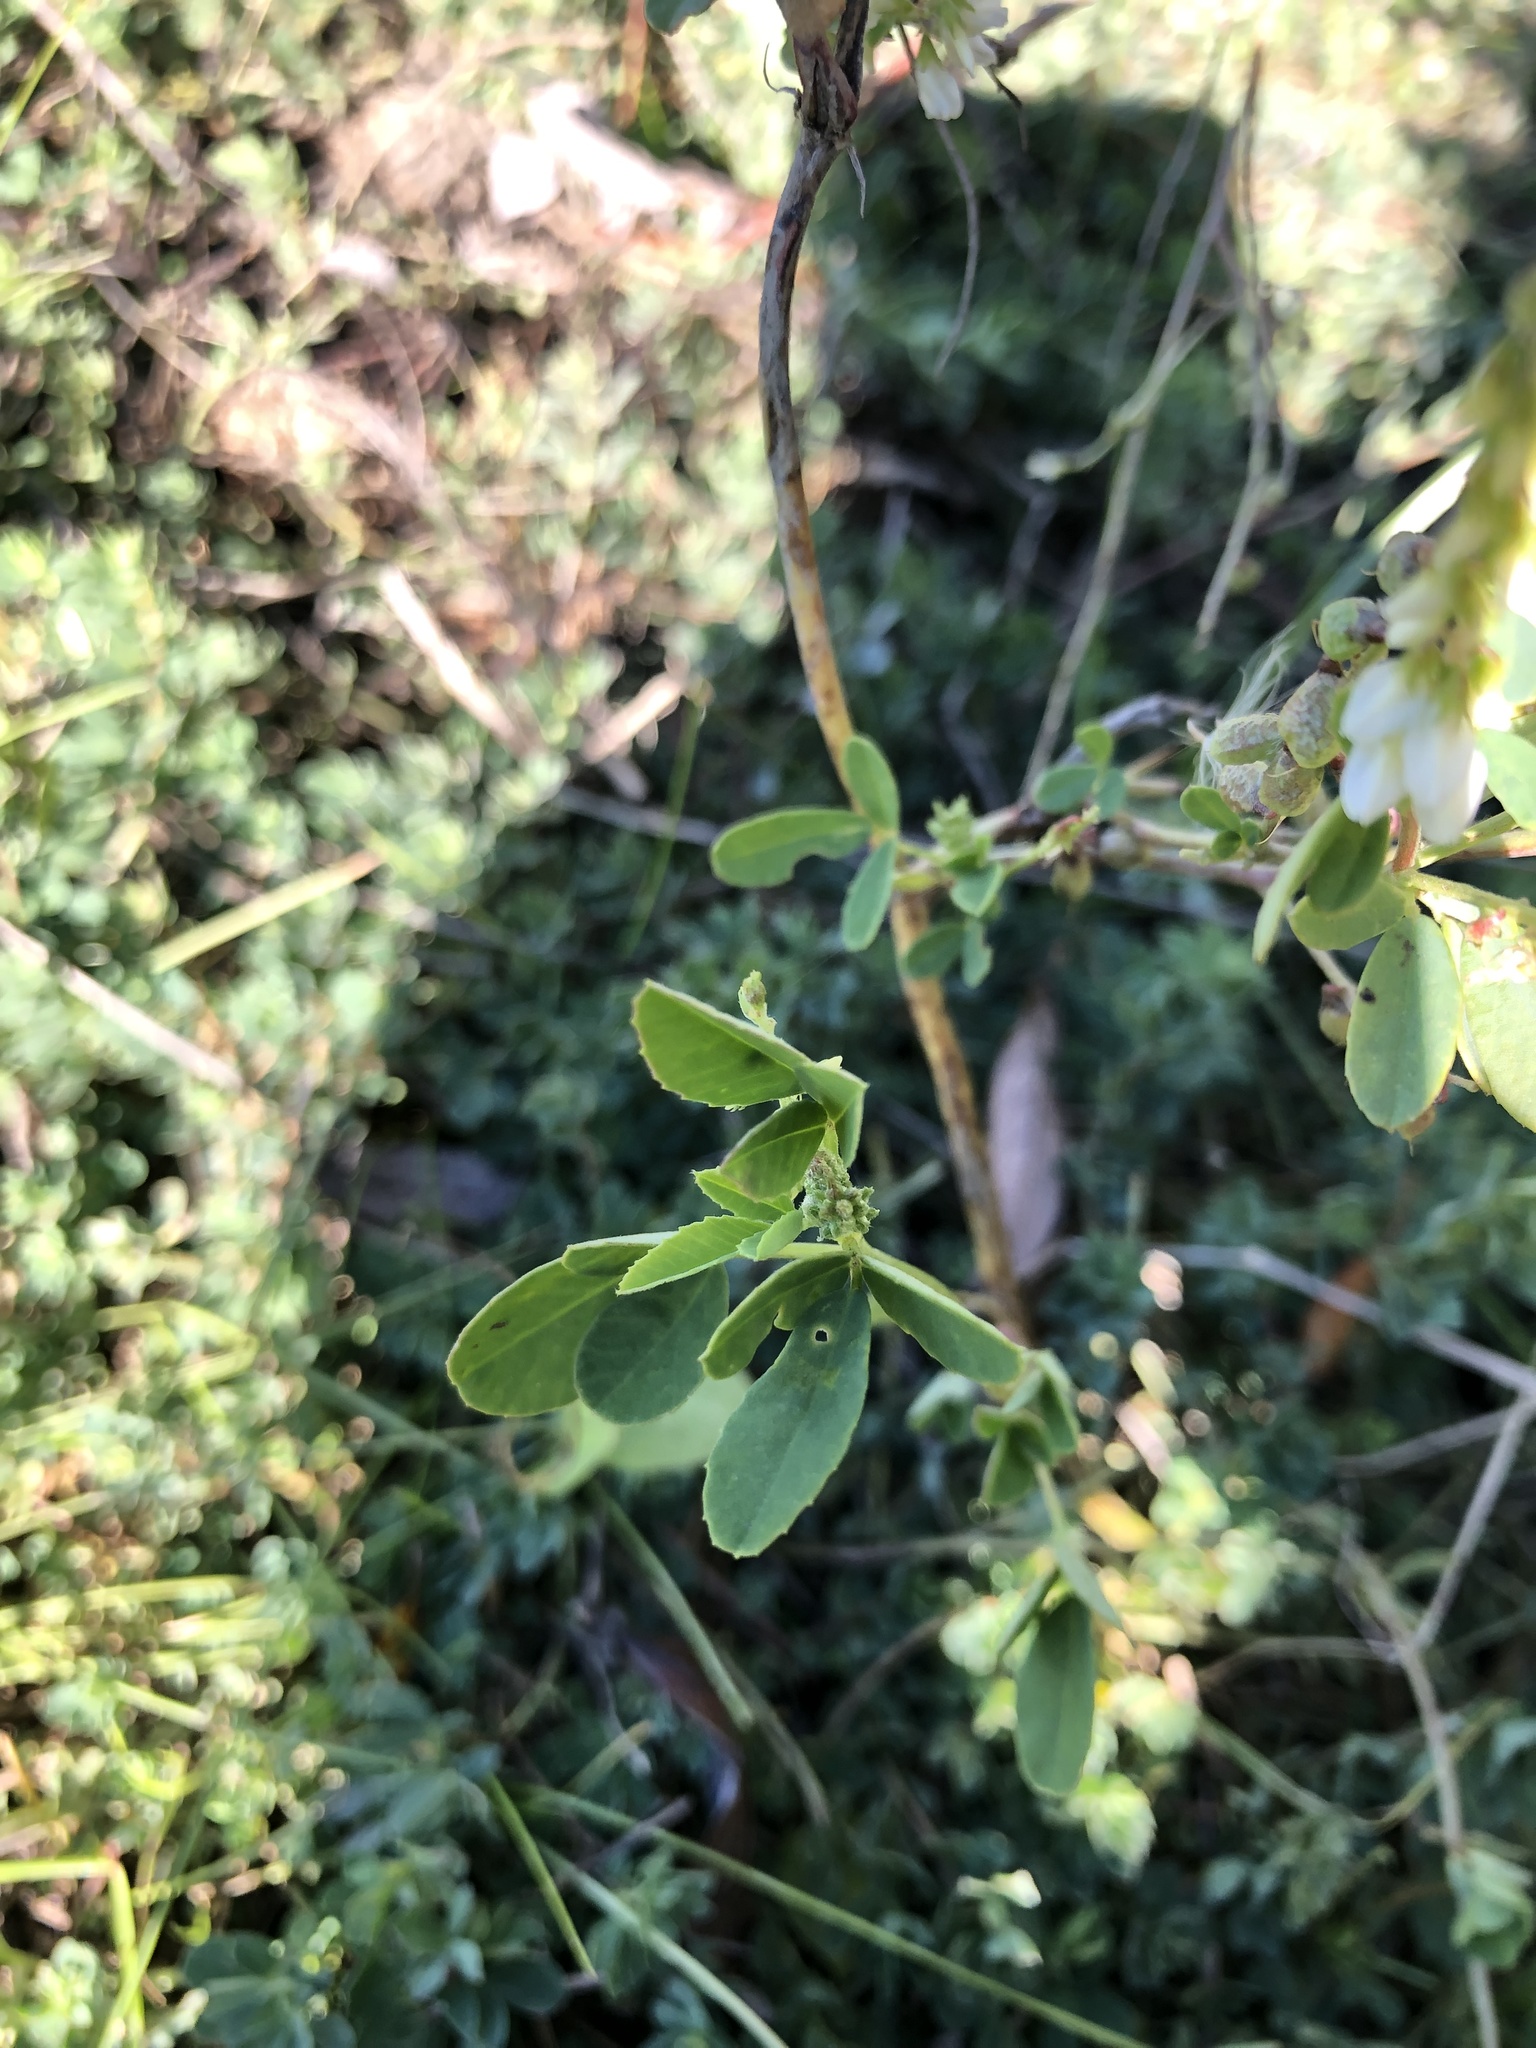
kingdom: Plantae
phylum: Tracheophyta
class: Magnoliopsida
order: Fabales
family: Fabaceae
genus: Melilotus
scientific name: Melilotus albus
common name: White melilot
